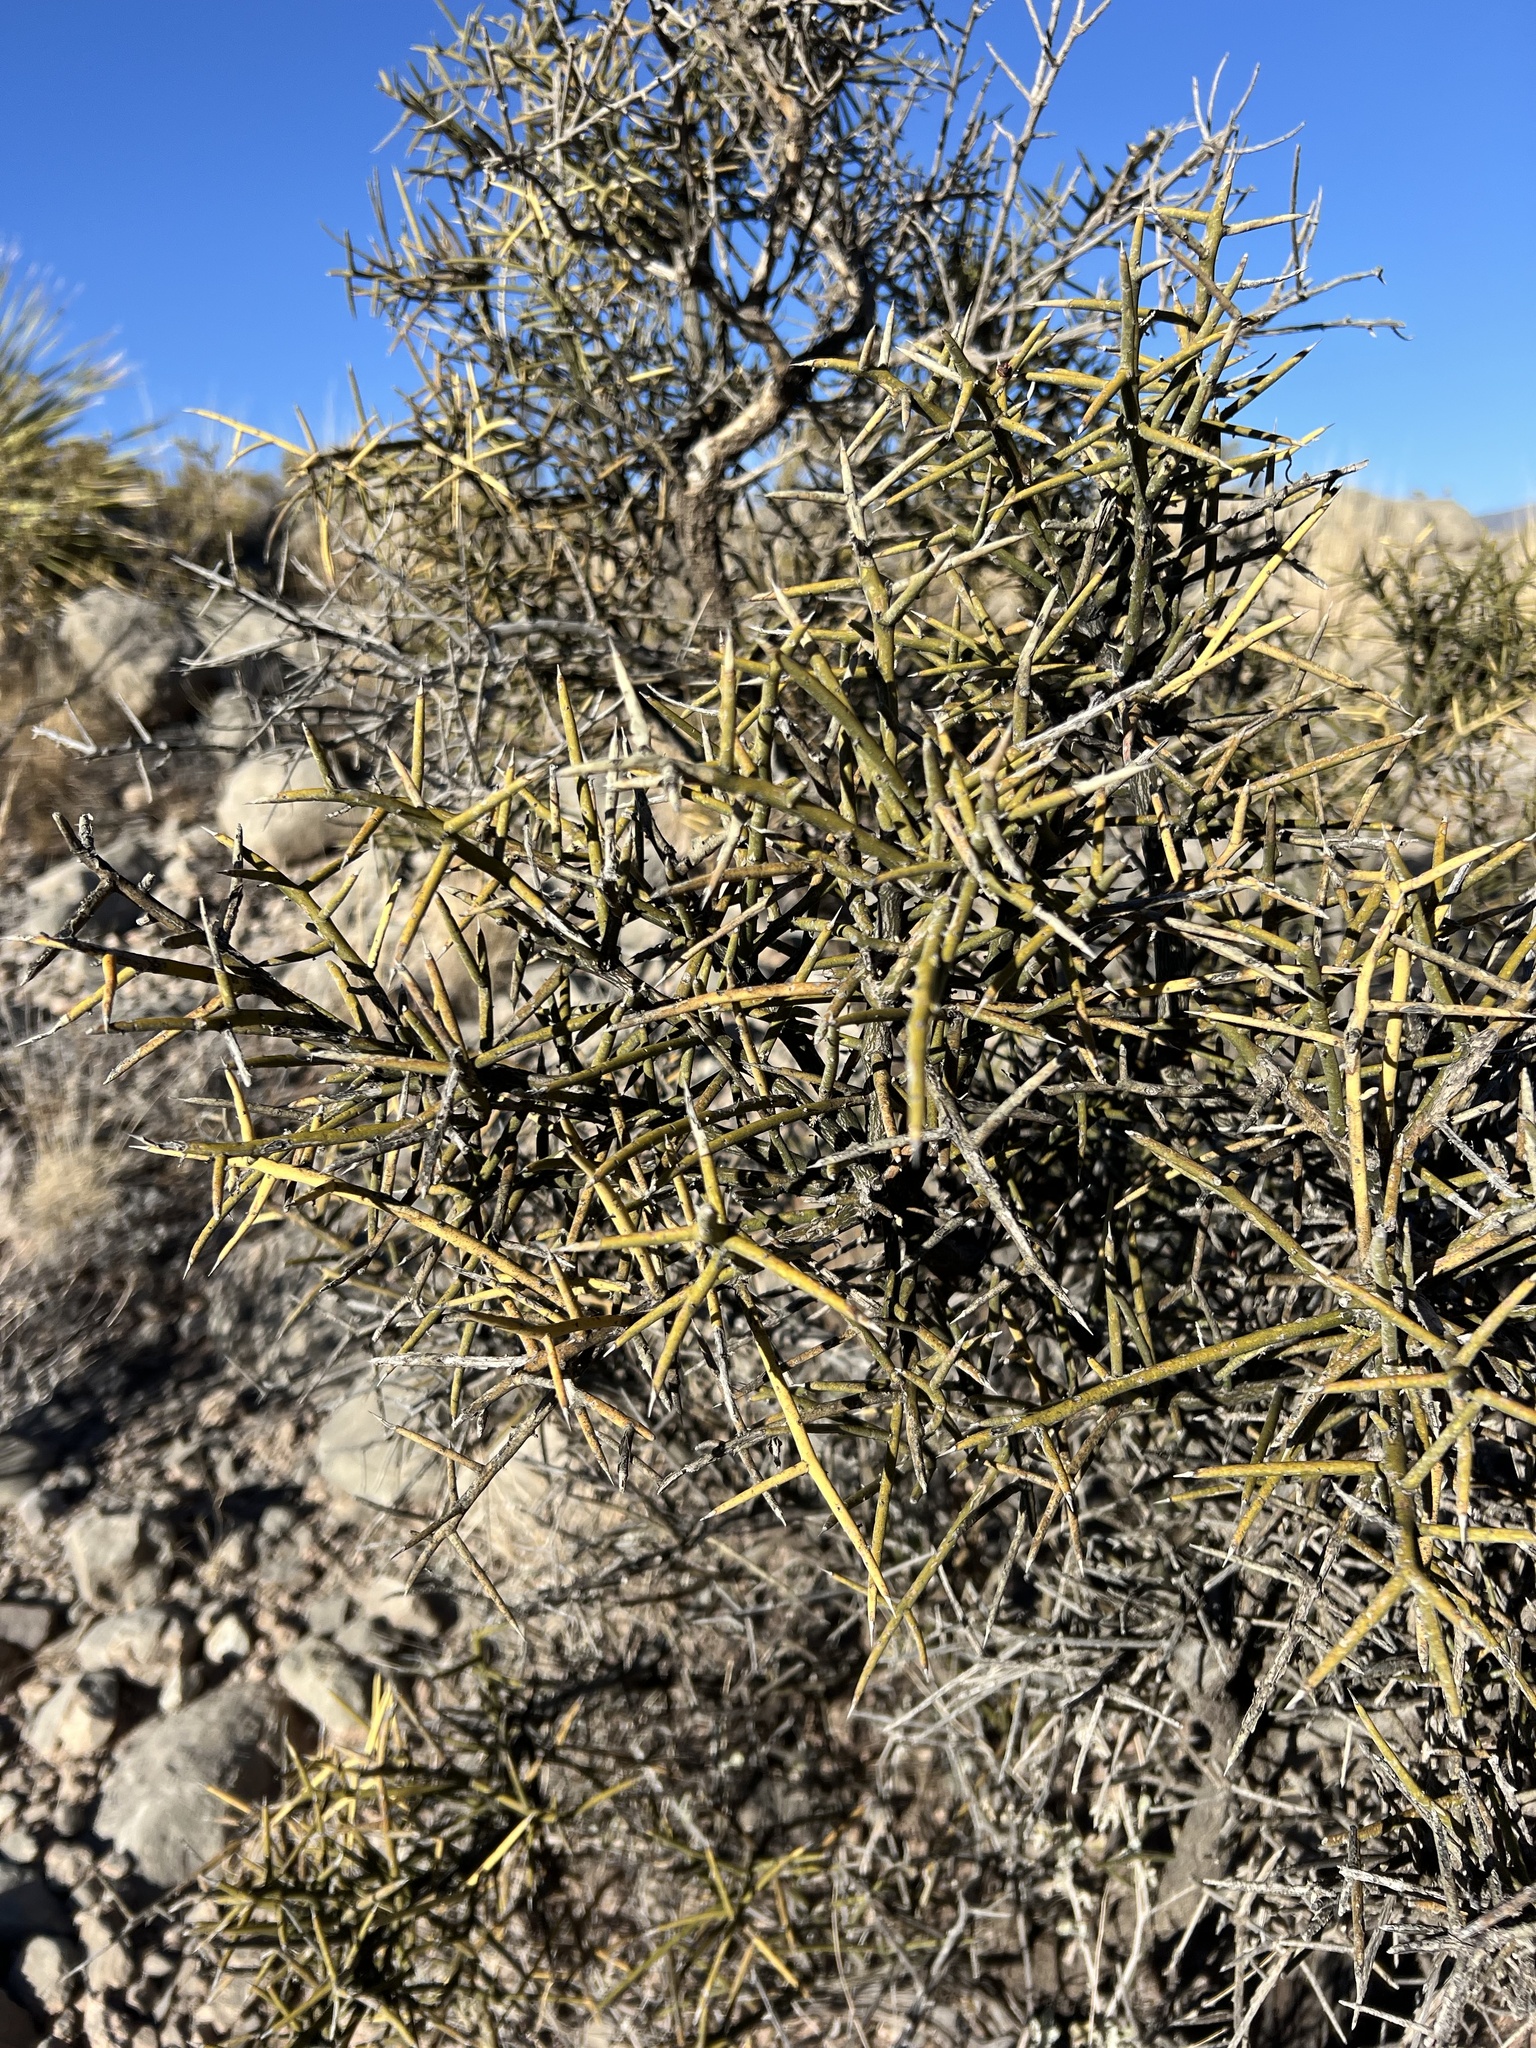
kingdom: Plantae
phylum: Tracheophyta
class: Magnoliopsida
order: Brassicales
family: Koeberliniaceae
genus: Koeberlinia
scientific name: Koeberlinia spinosa
